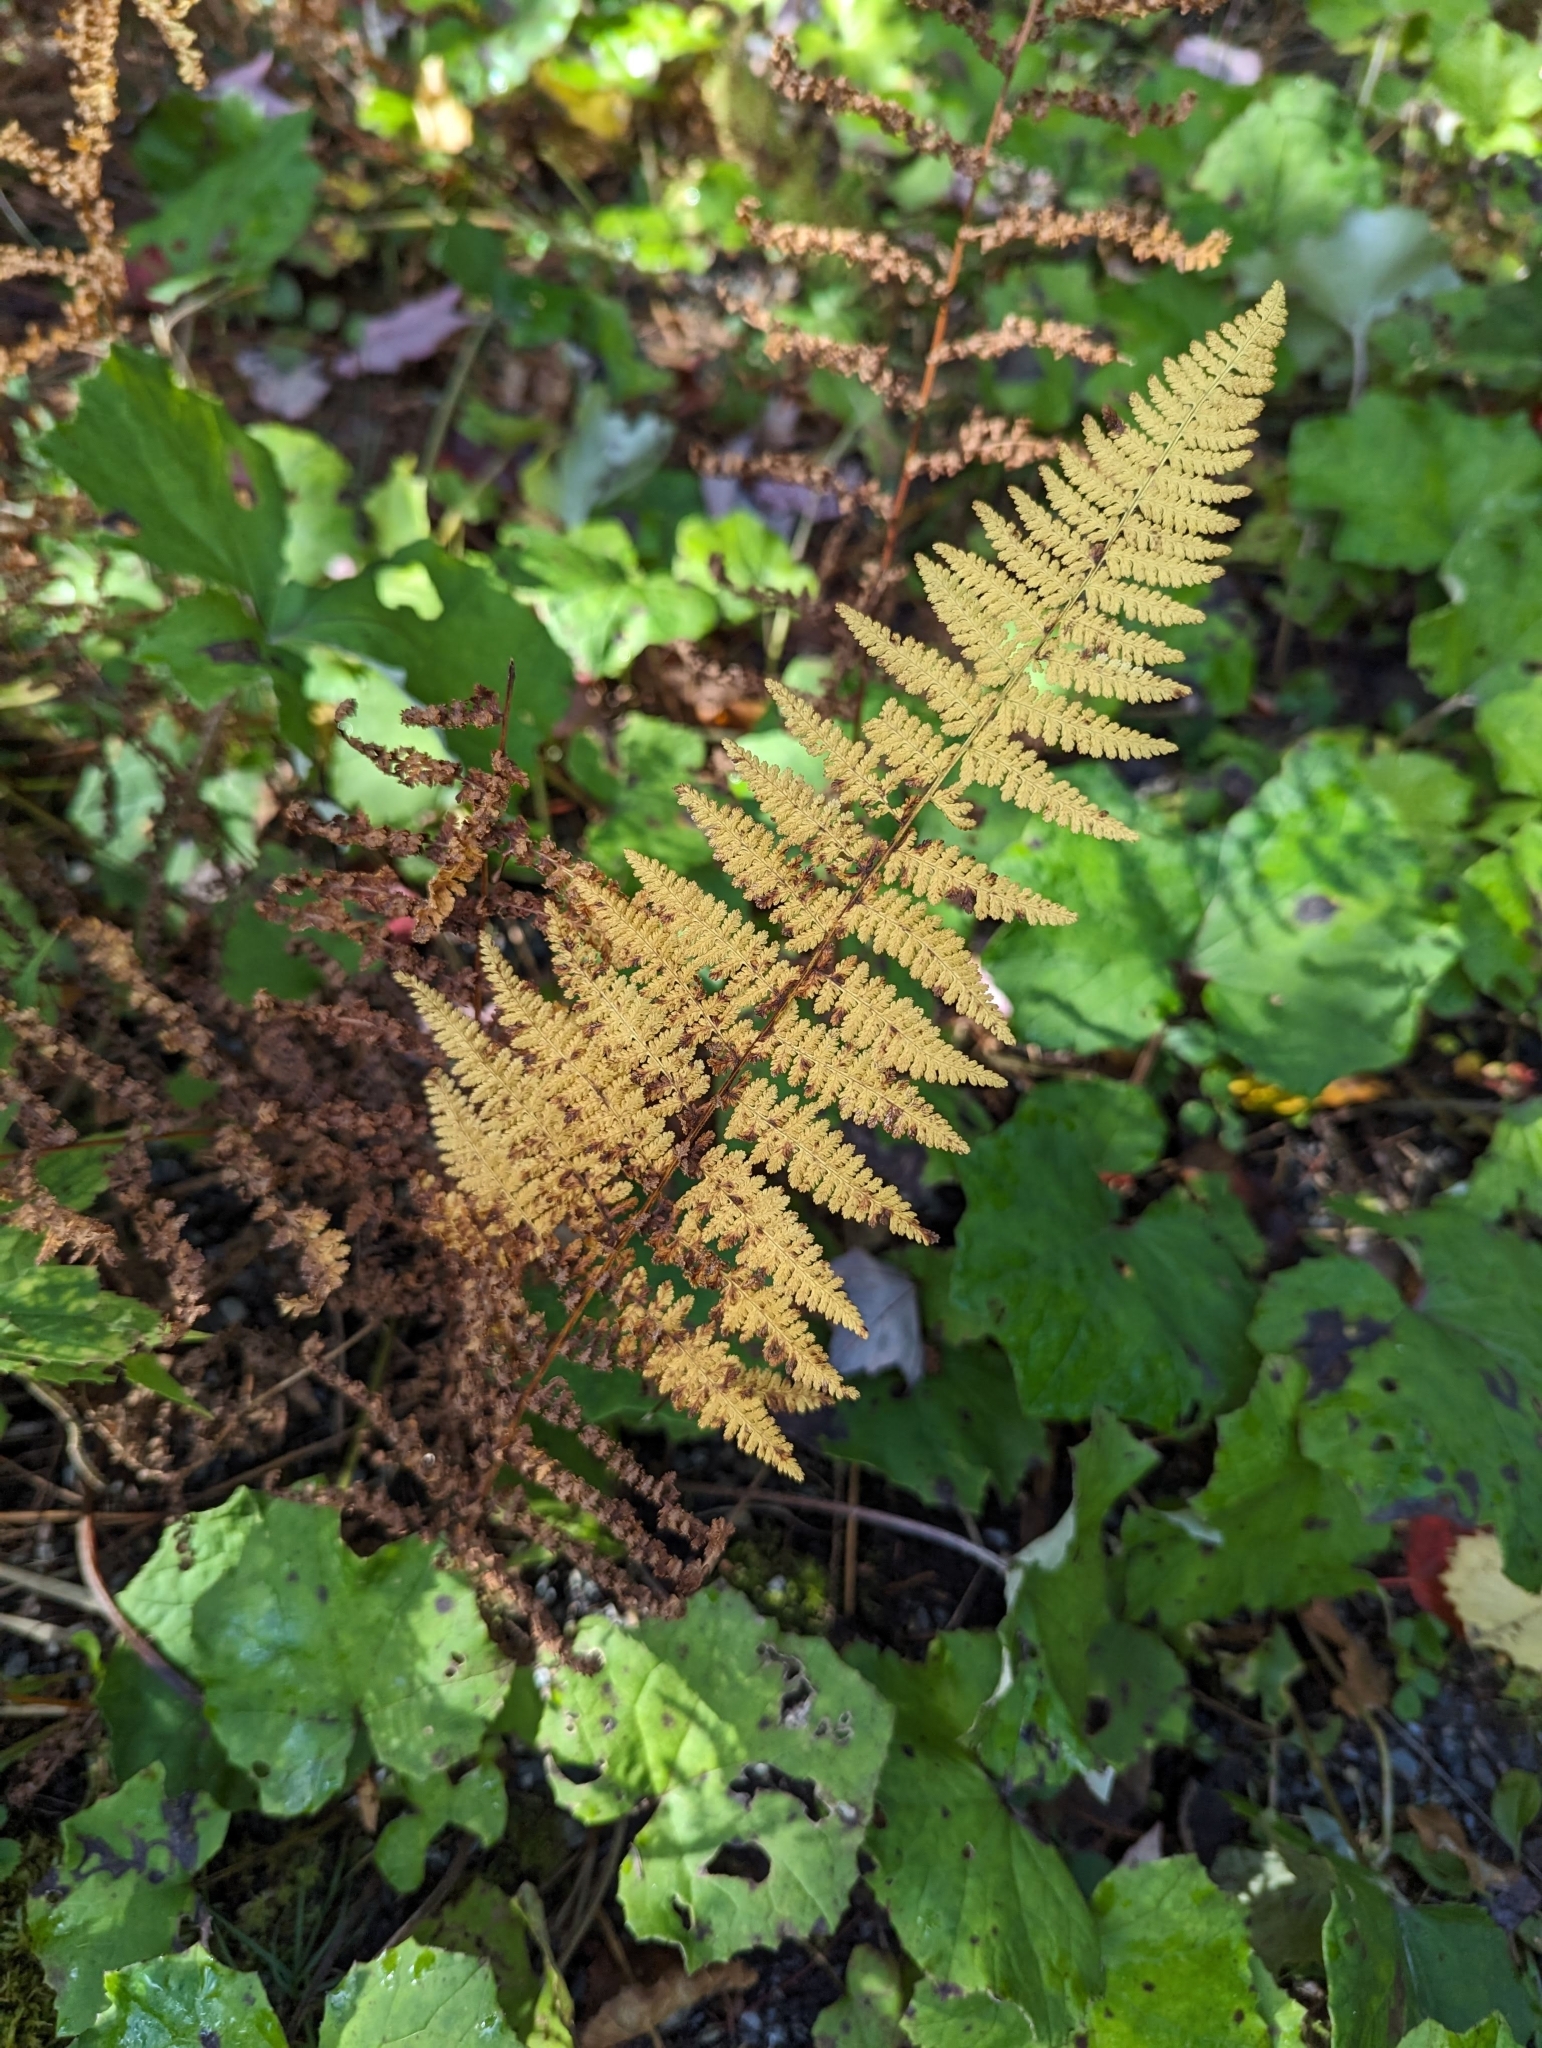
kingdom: Plantae
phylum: Tracheophyta
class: Polypodiopsida
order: Polypodiales
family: Dennstaedtiaceae
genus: Sitobolium
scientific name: Sitobolium punctilobum
